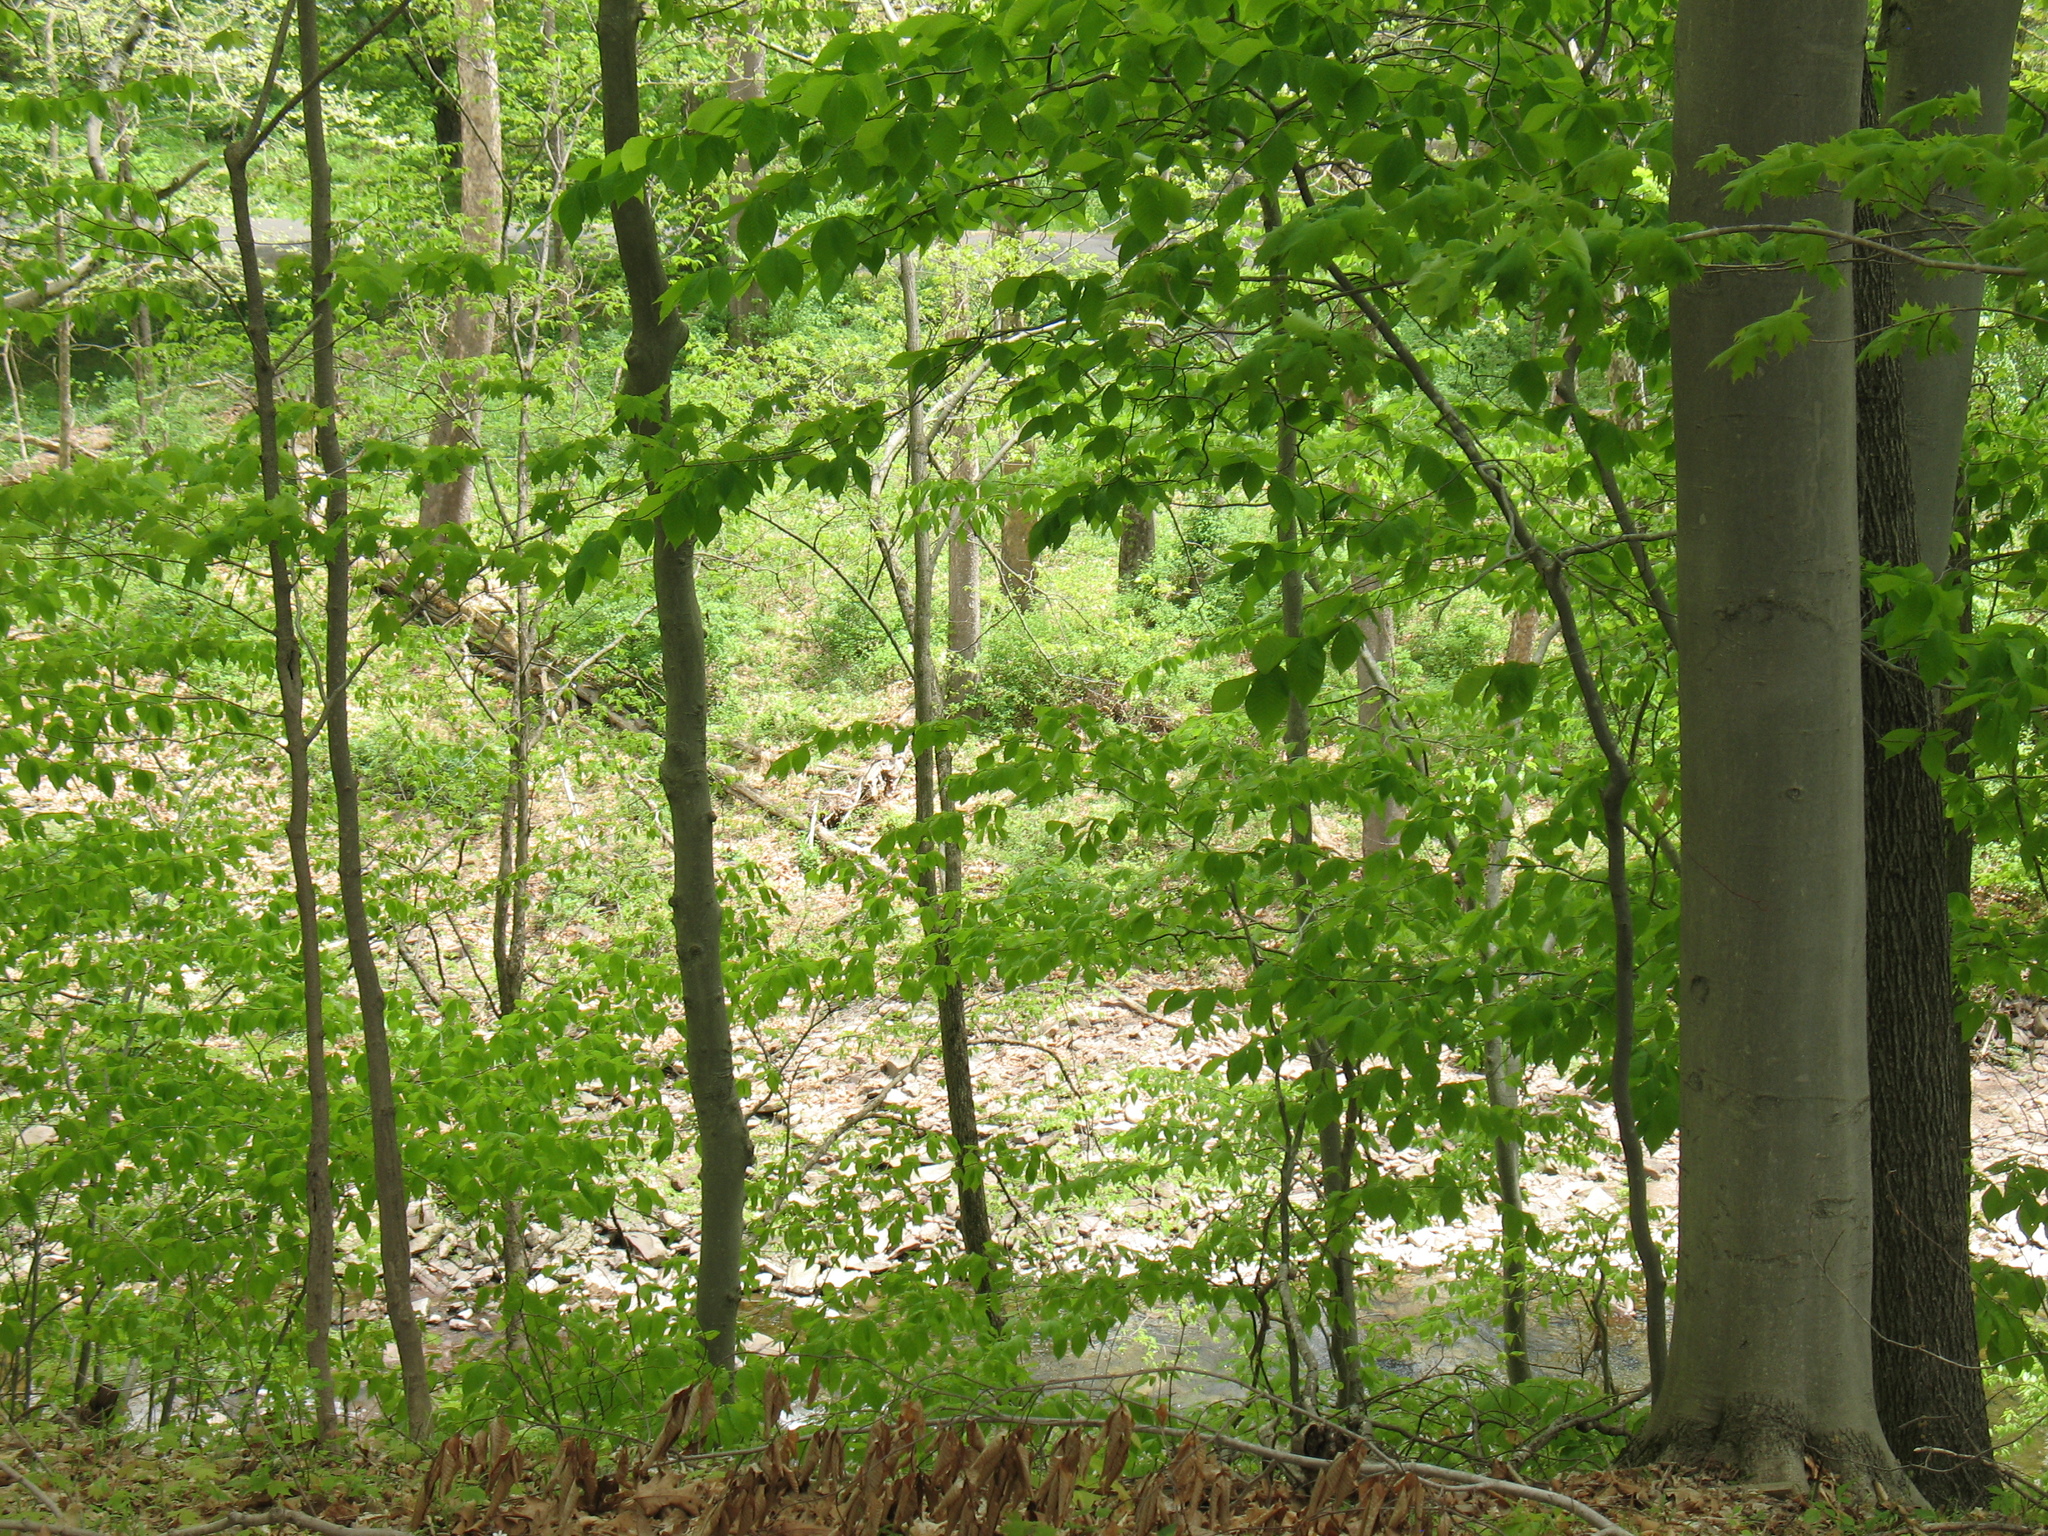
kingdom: Plantae
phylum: Tracheophyta
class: Magnoliopsida
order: Fagales
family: Fagaceae
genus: Fagus
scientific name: Fagus grandifolia
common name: American beech
